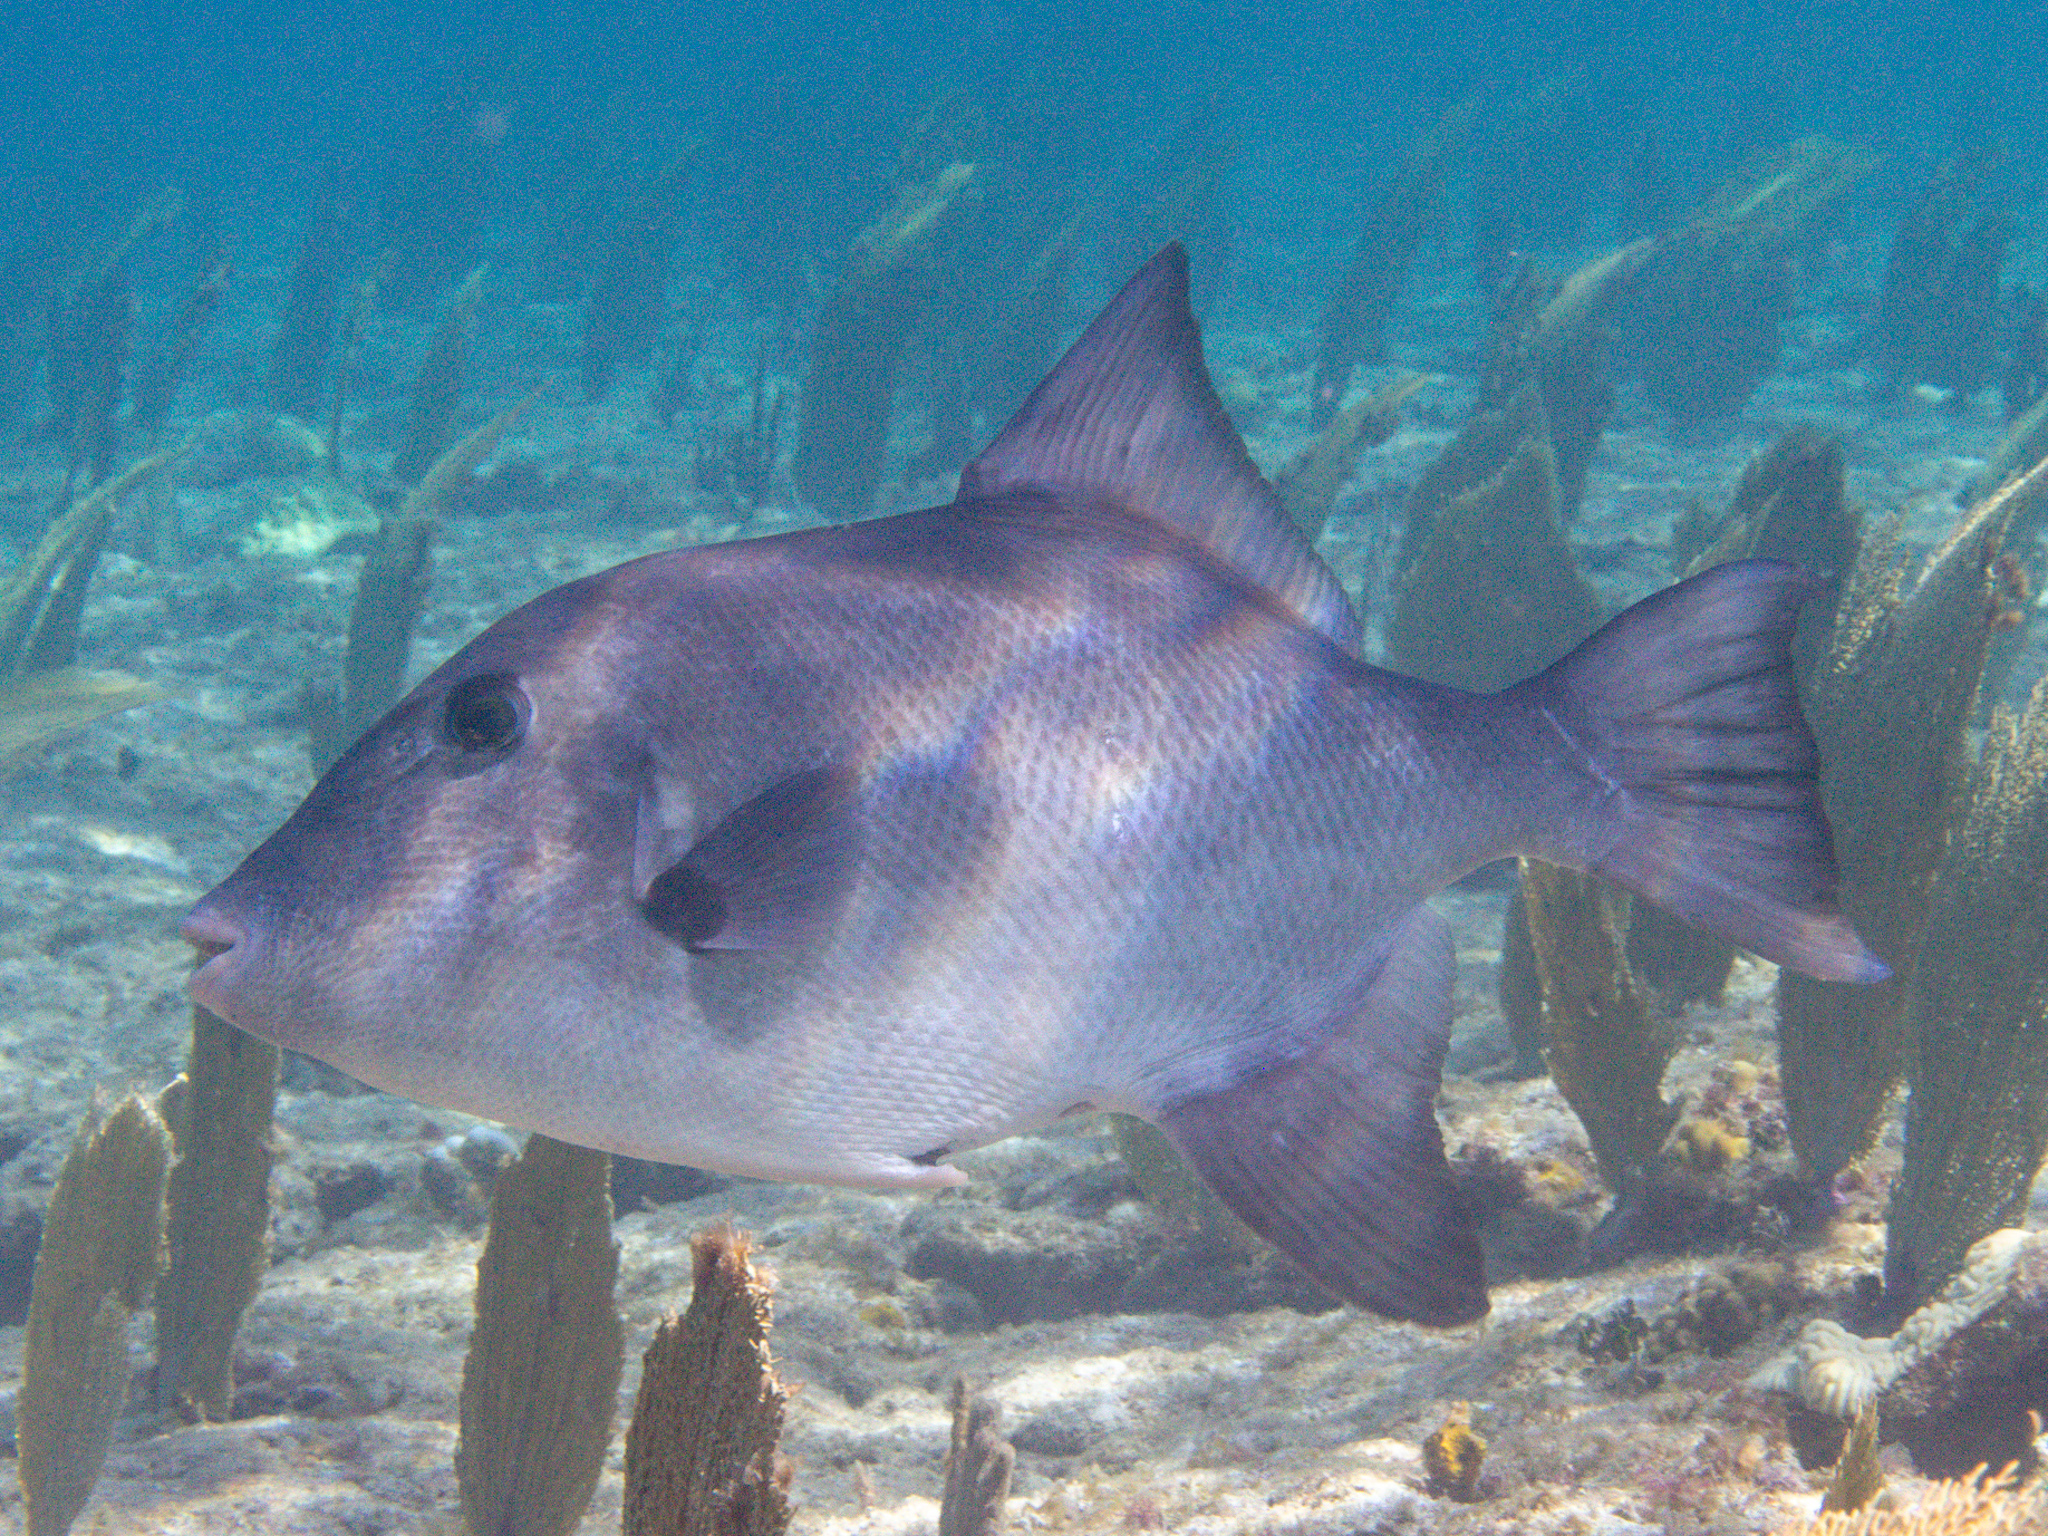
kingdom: Animalia
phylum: Chordata
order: Tetraodontiformes
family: Balistidae
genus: Canthidermis
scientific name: Canthidermis sufflamen
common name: Ocean triggerfish
